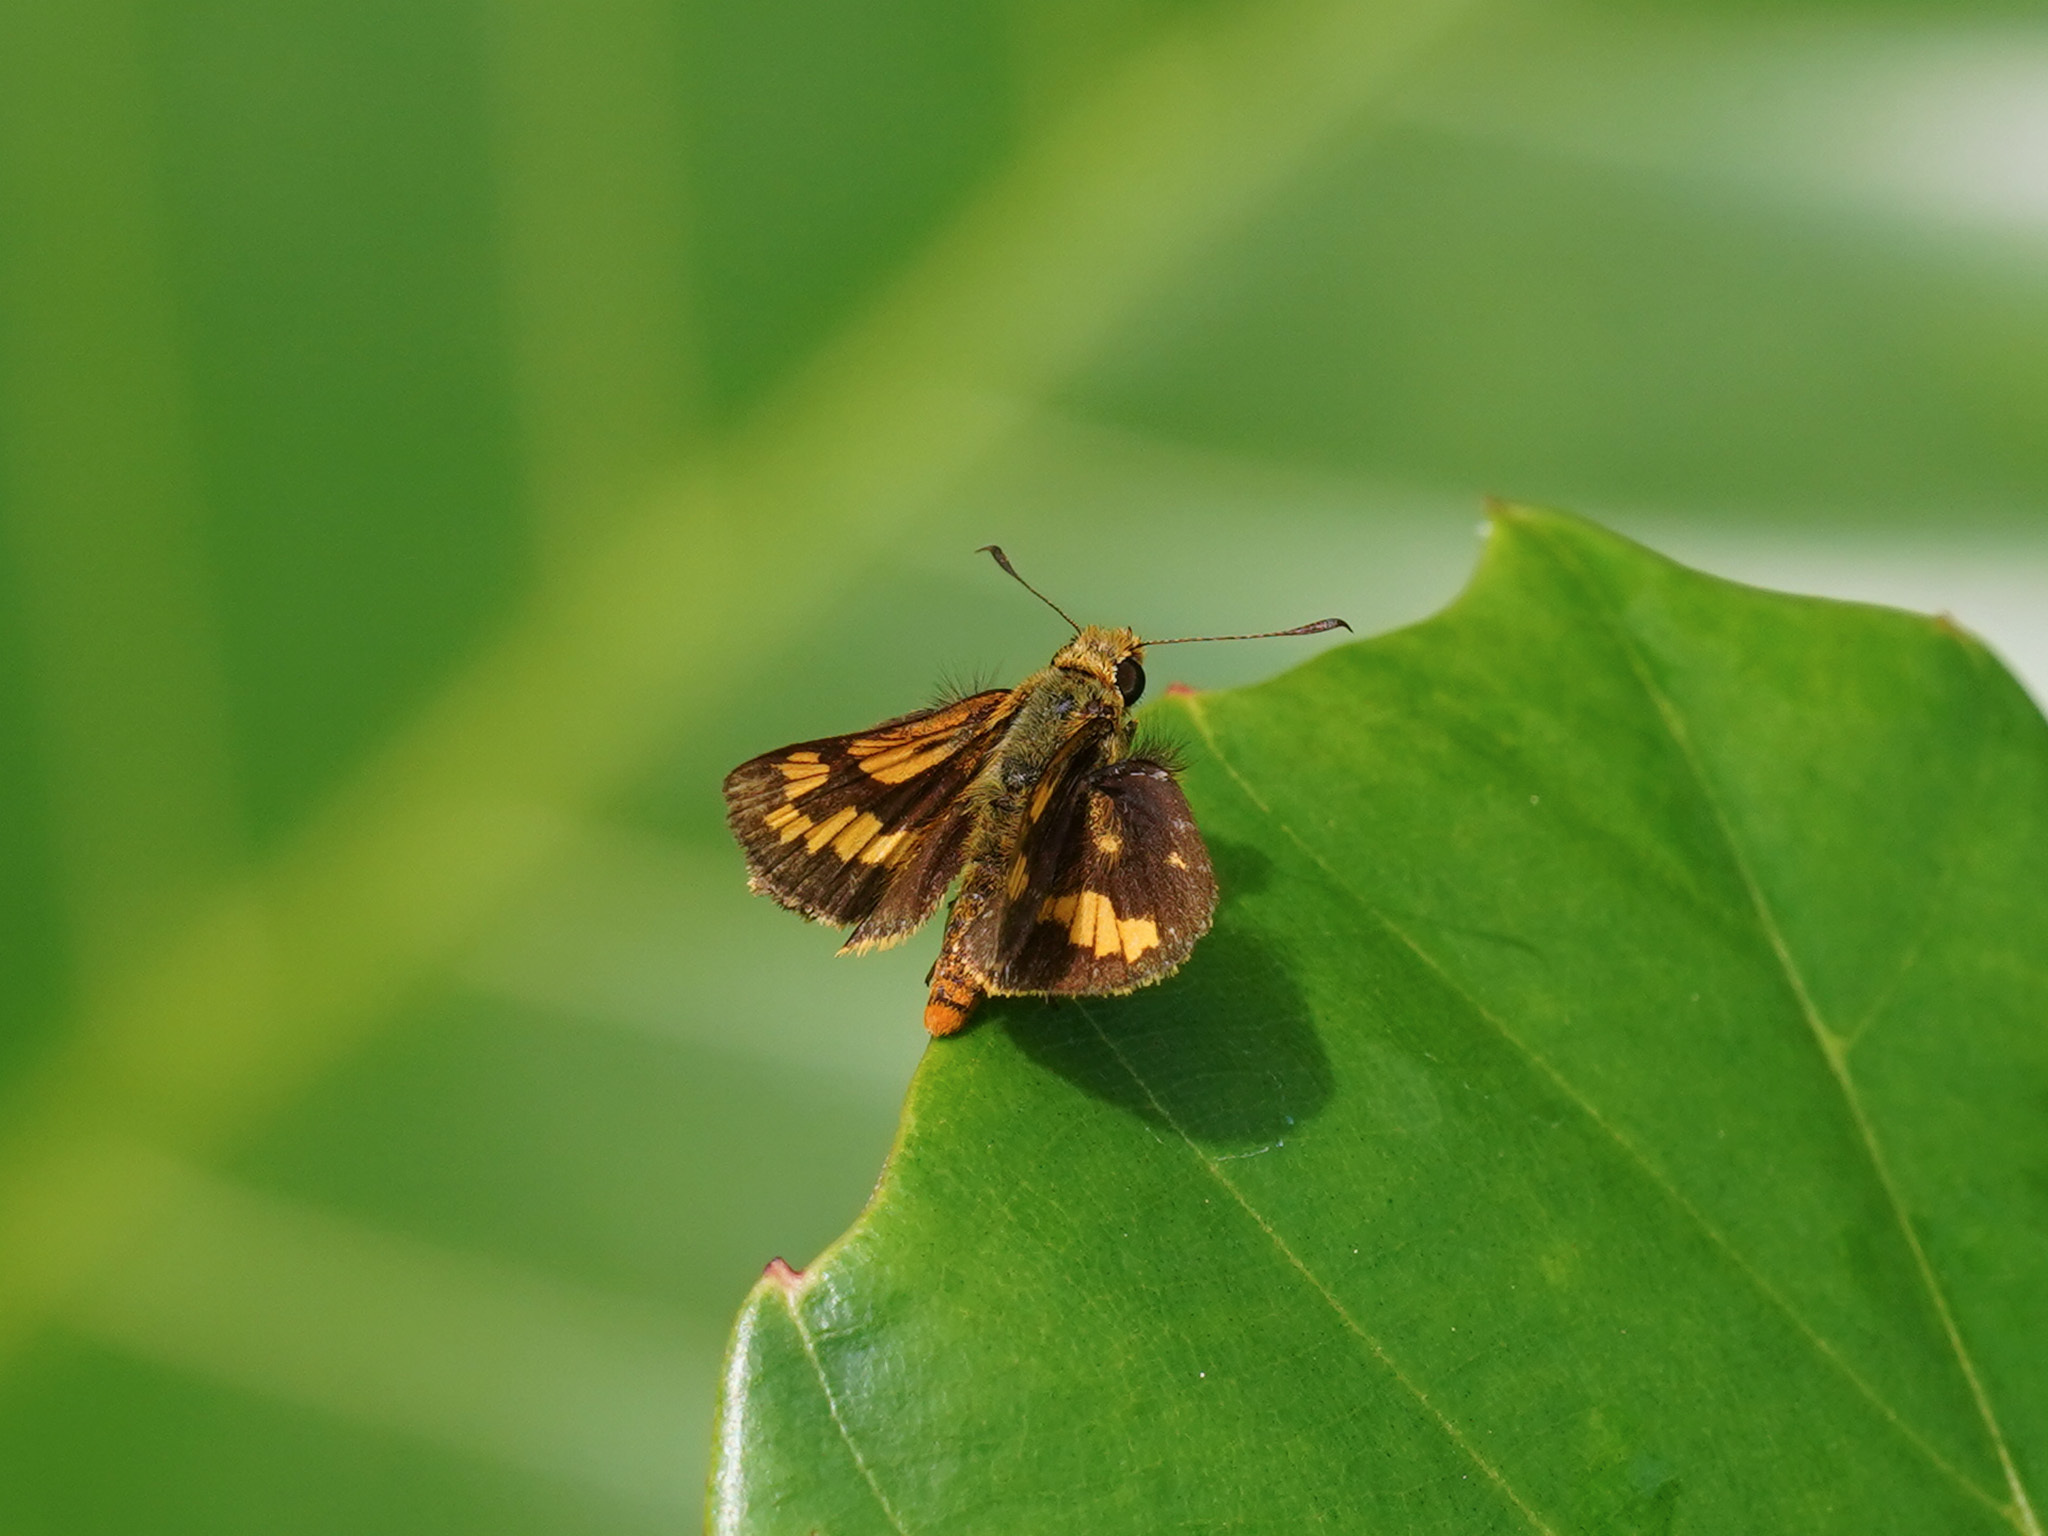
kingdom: Animalia
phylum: Arthropoda
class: Insecta
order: Lepidoptera
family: Hesperiidae
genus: Potanthus
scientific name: Potanthus omaha
